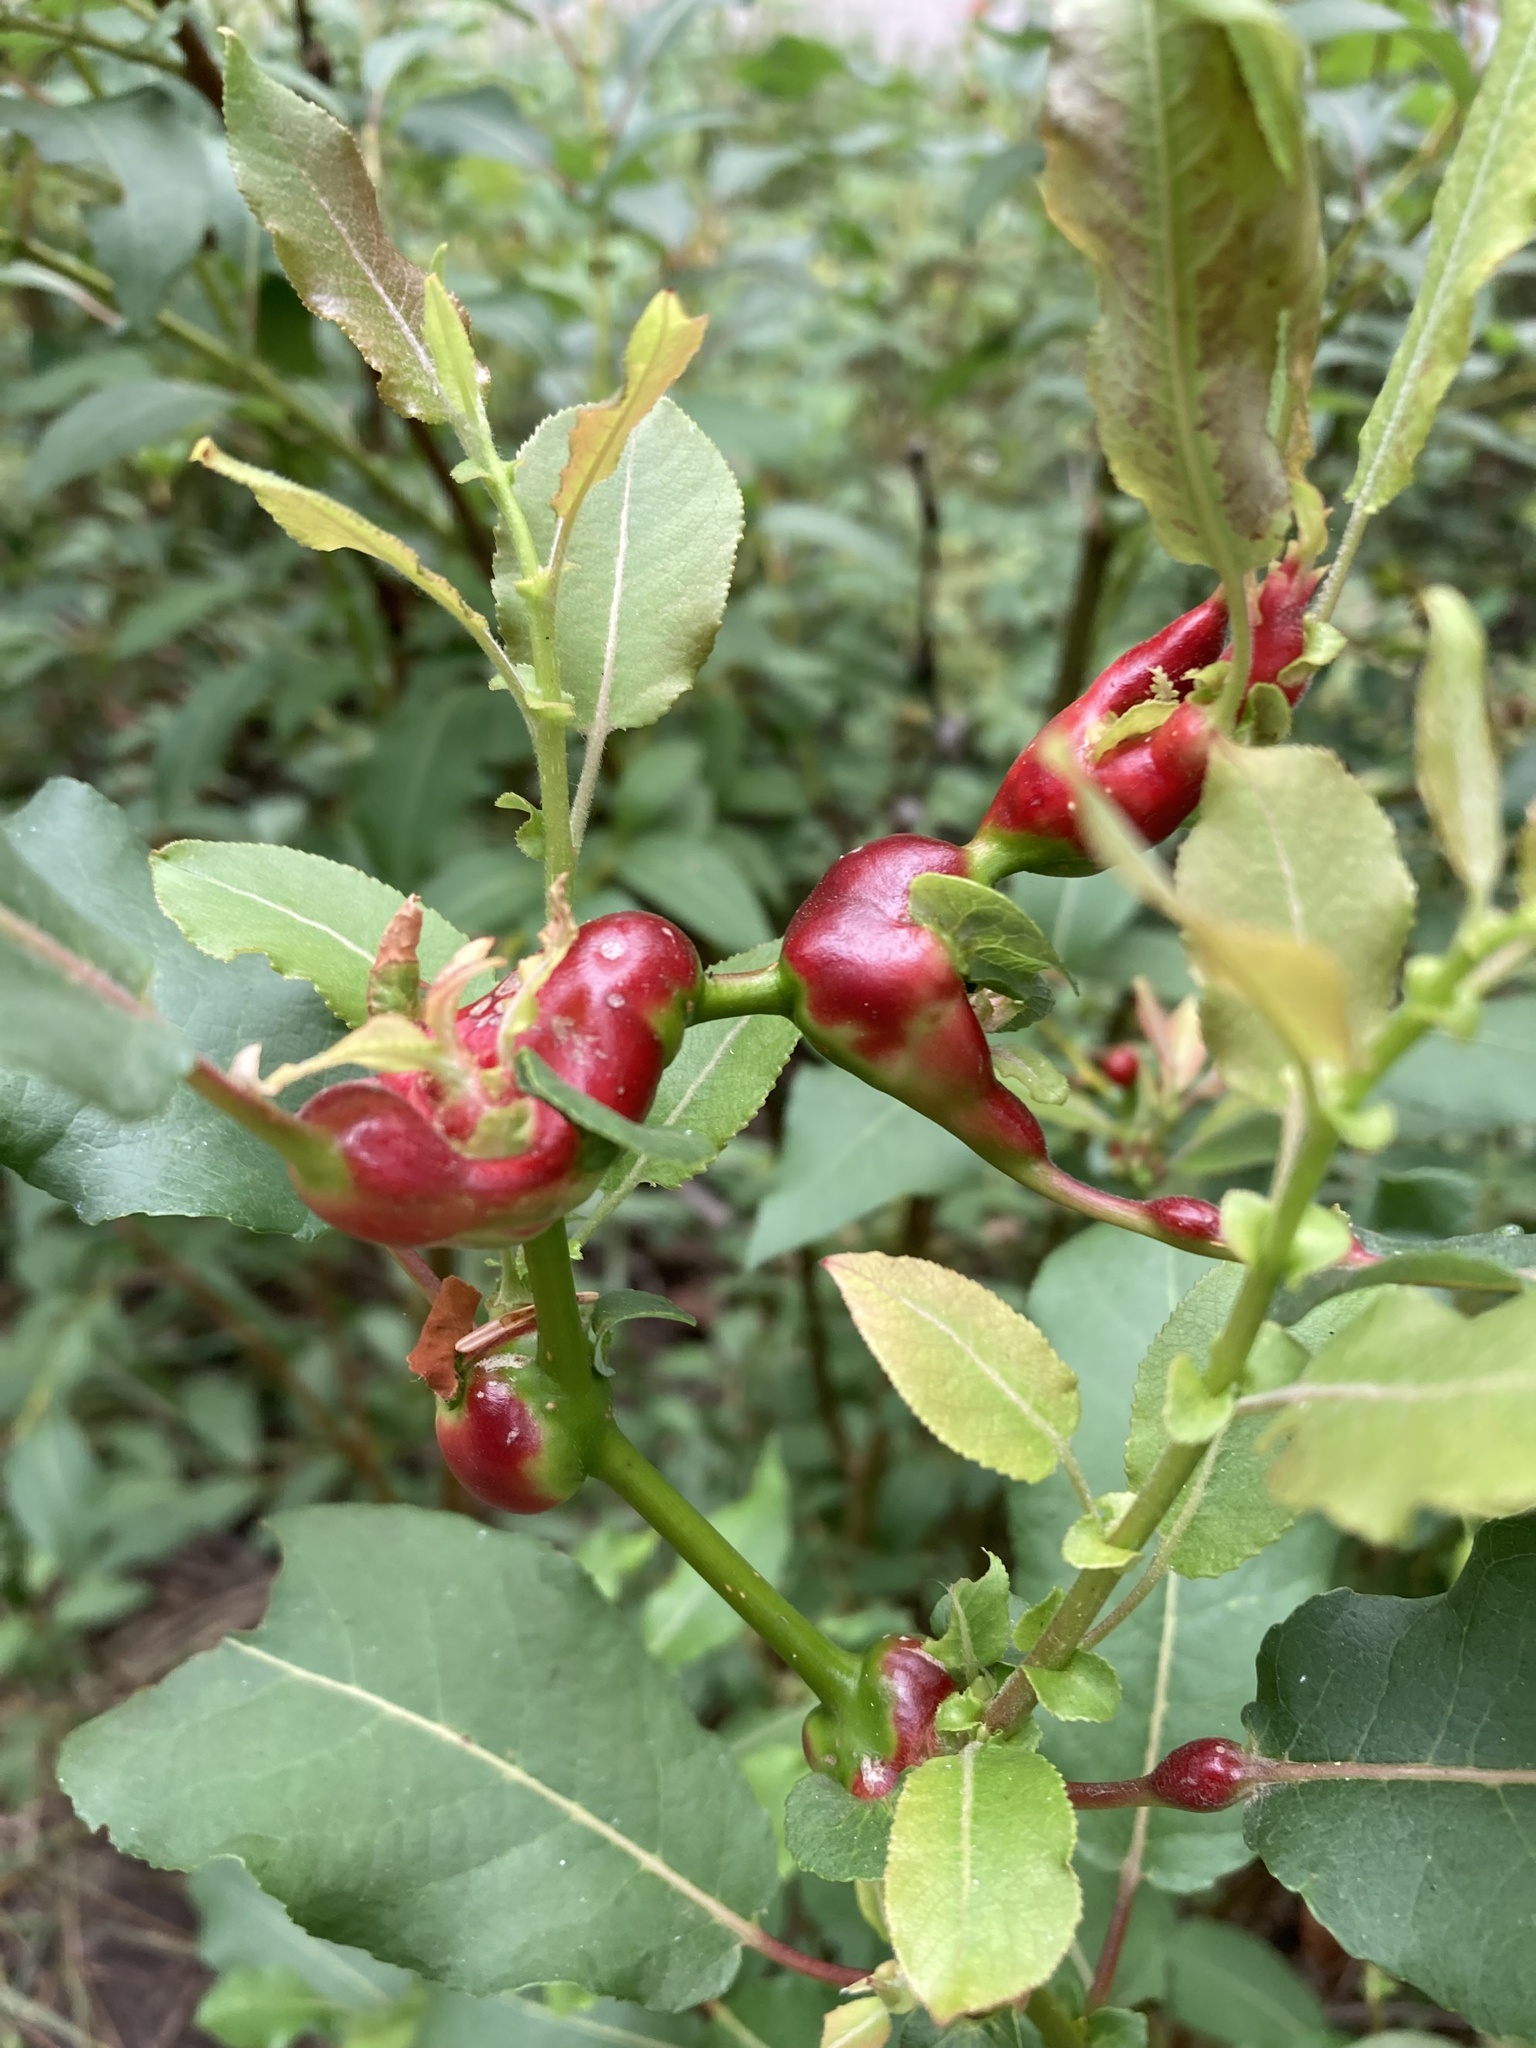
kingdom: Animalia
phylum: Arthropoda
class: Insecta
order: Diptera
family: Cecidomyiidae
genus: Rabdophaga
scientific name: Rabdophaga salicisbatatas
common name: Potato gall midge
